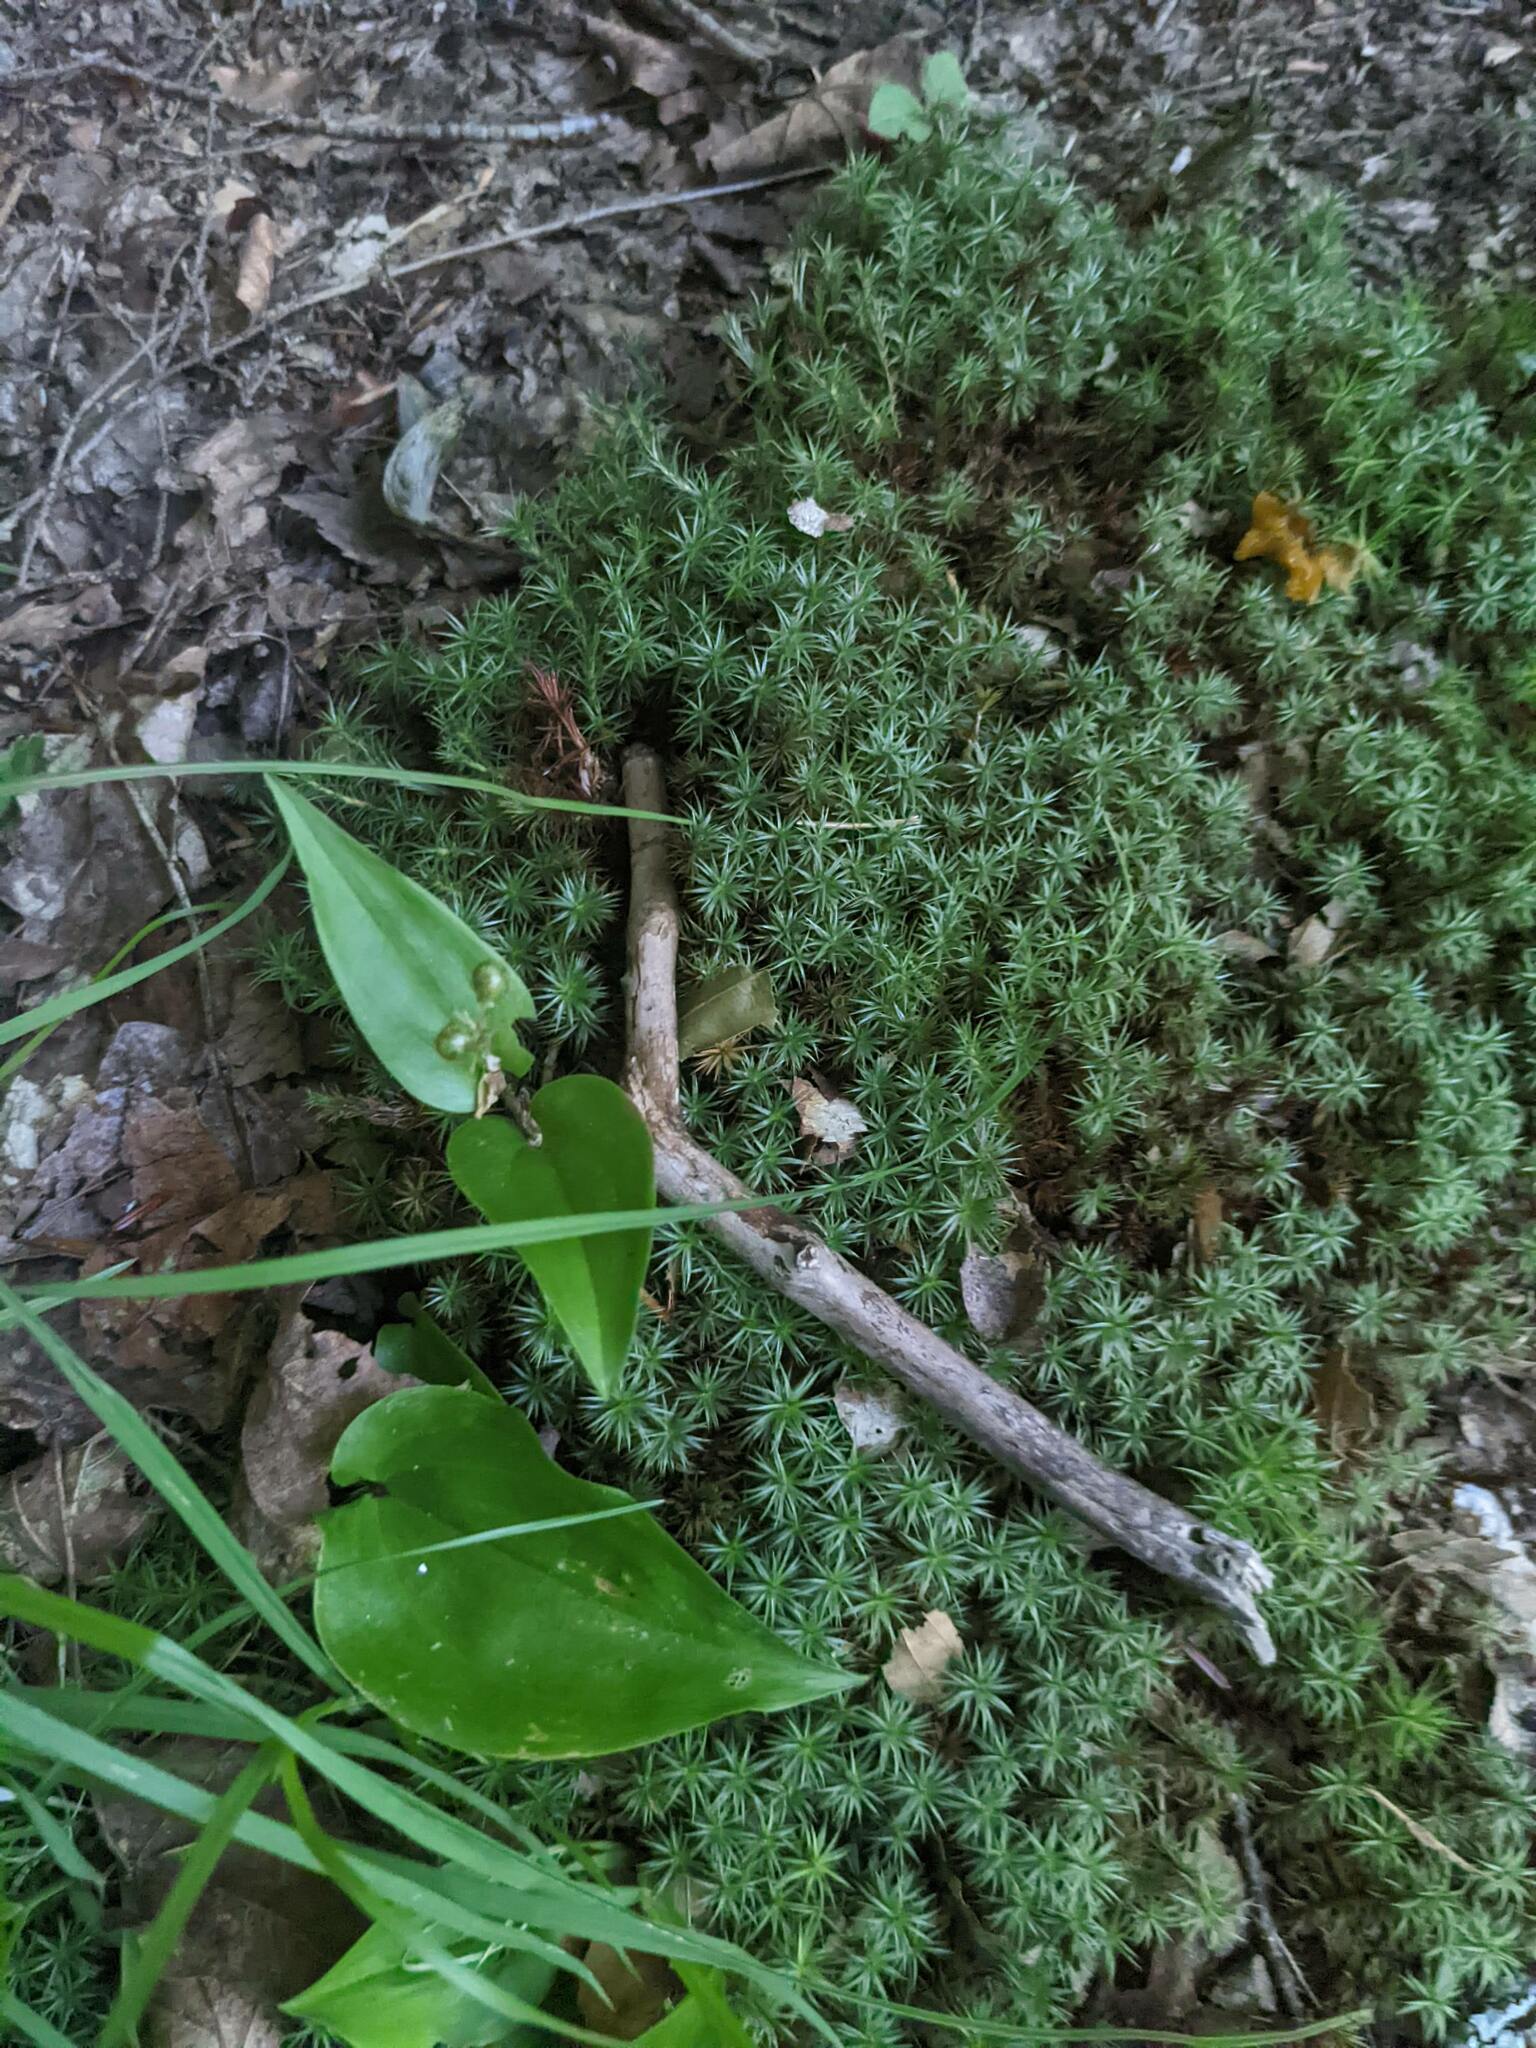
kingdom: Plantae
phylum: Tracheophyta
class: Liliopsida
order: Asparagales
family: Asparagaceae
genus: Maianthemum
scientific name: Maianthemum canadense
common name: False lily-of-the-valley
